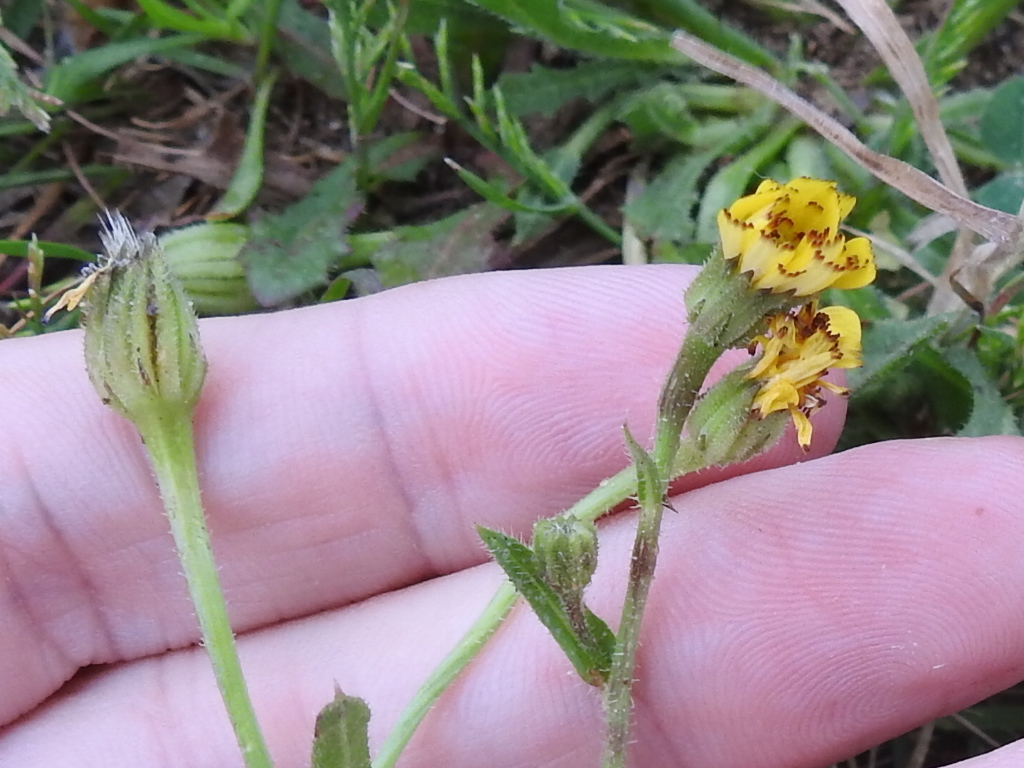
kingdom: Plantae
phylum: Tracheophyta
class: Magnoliopsida
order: Asterales
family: Asteraceae
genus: Hedypnois
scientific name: Hedypnois rhagadioloides
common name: Cretan weed
